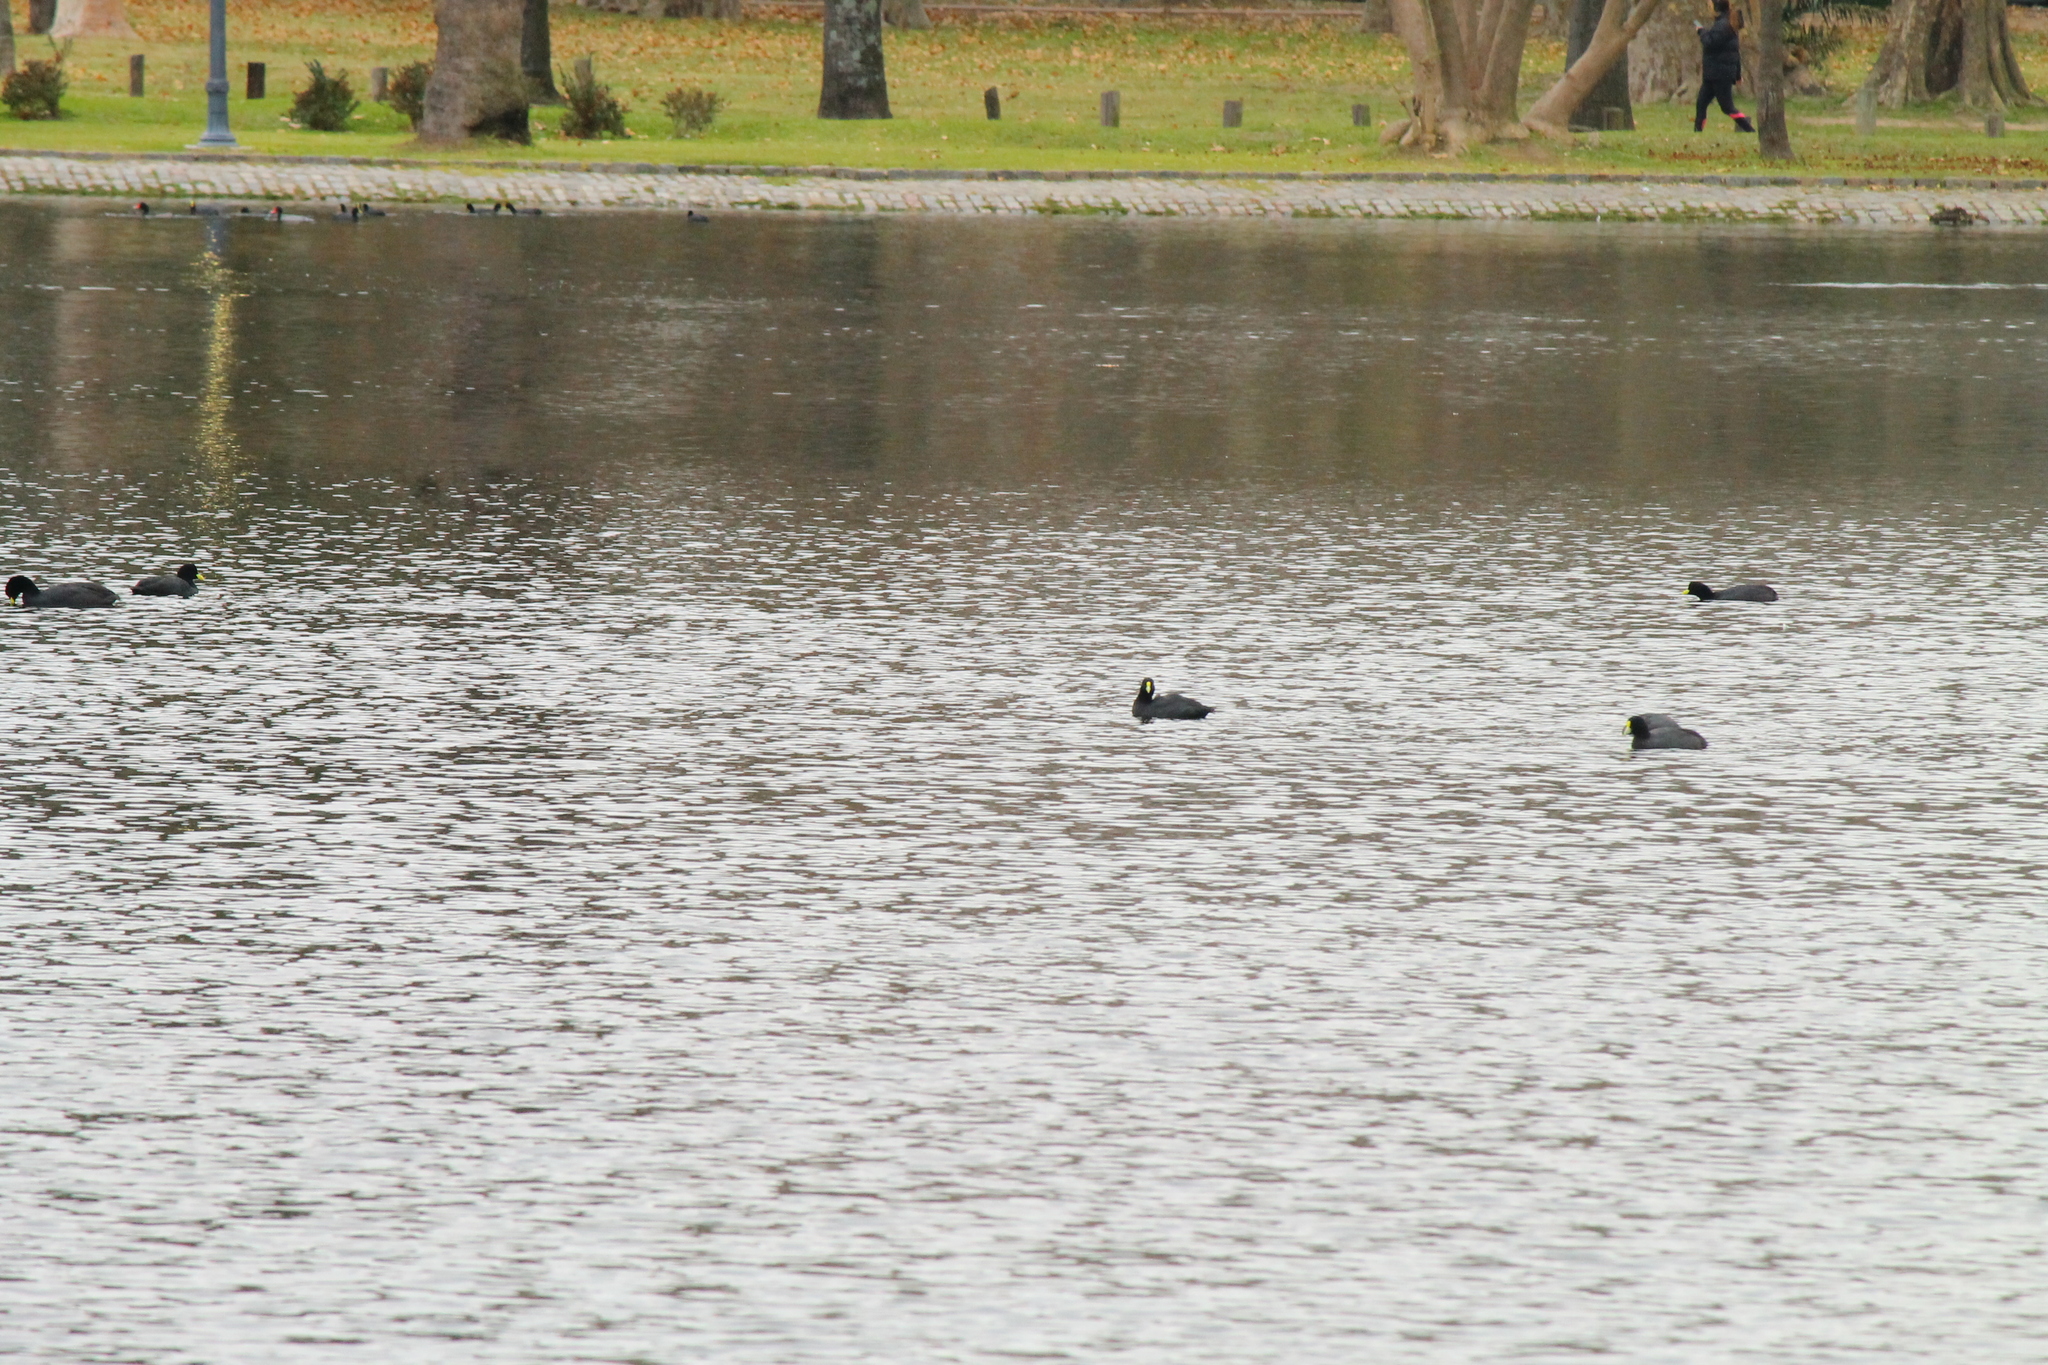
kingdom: Animalia
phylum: Chordata
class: Aves
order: Gruiformes
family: Rallidae
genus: Fulica
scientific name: Fulica leucoptera
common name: White-winged coot
